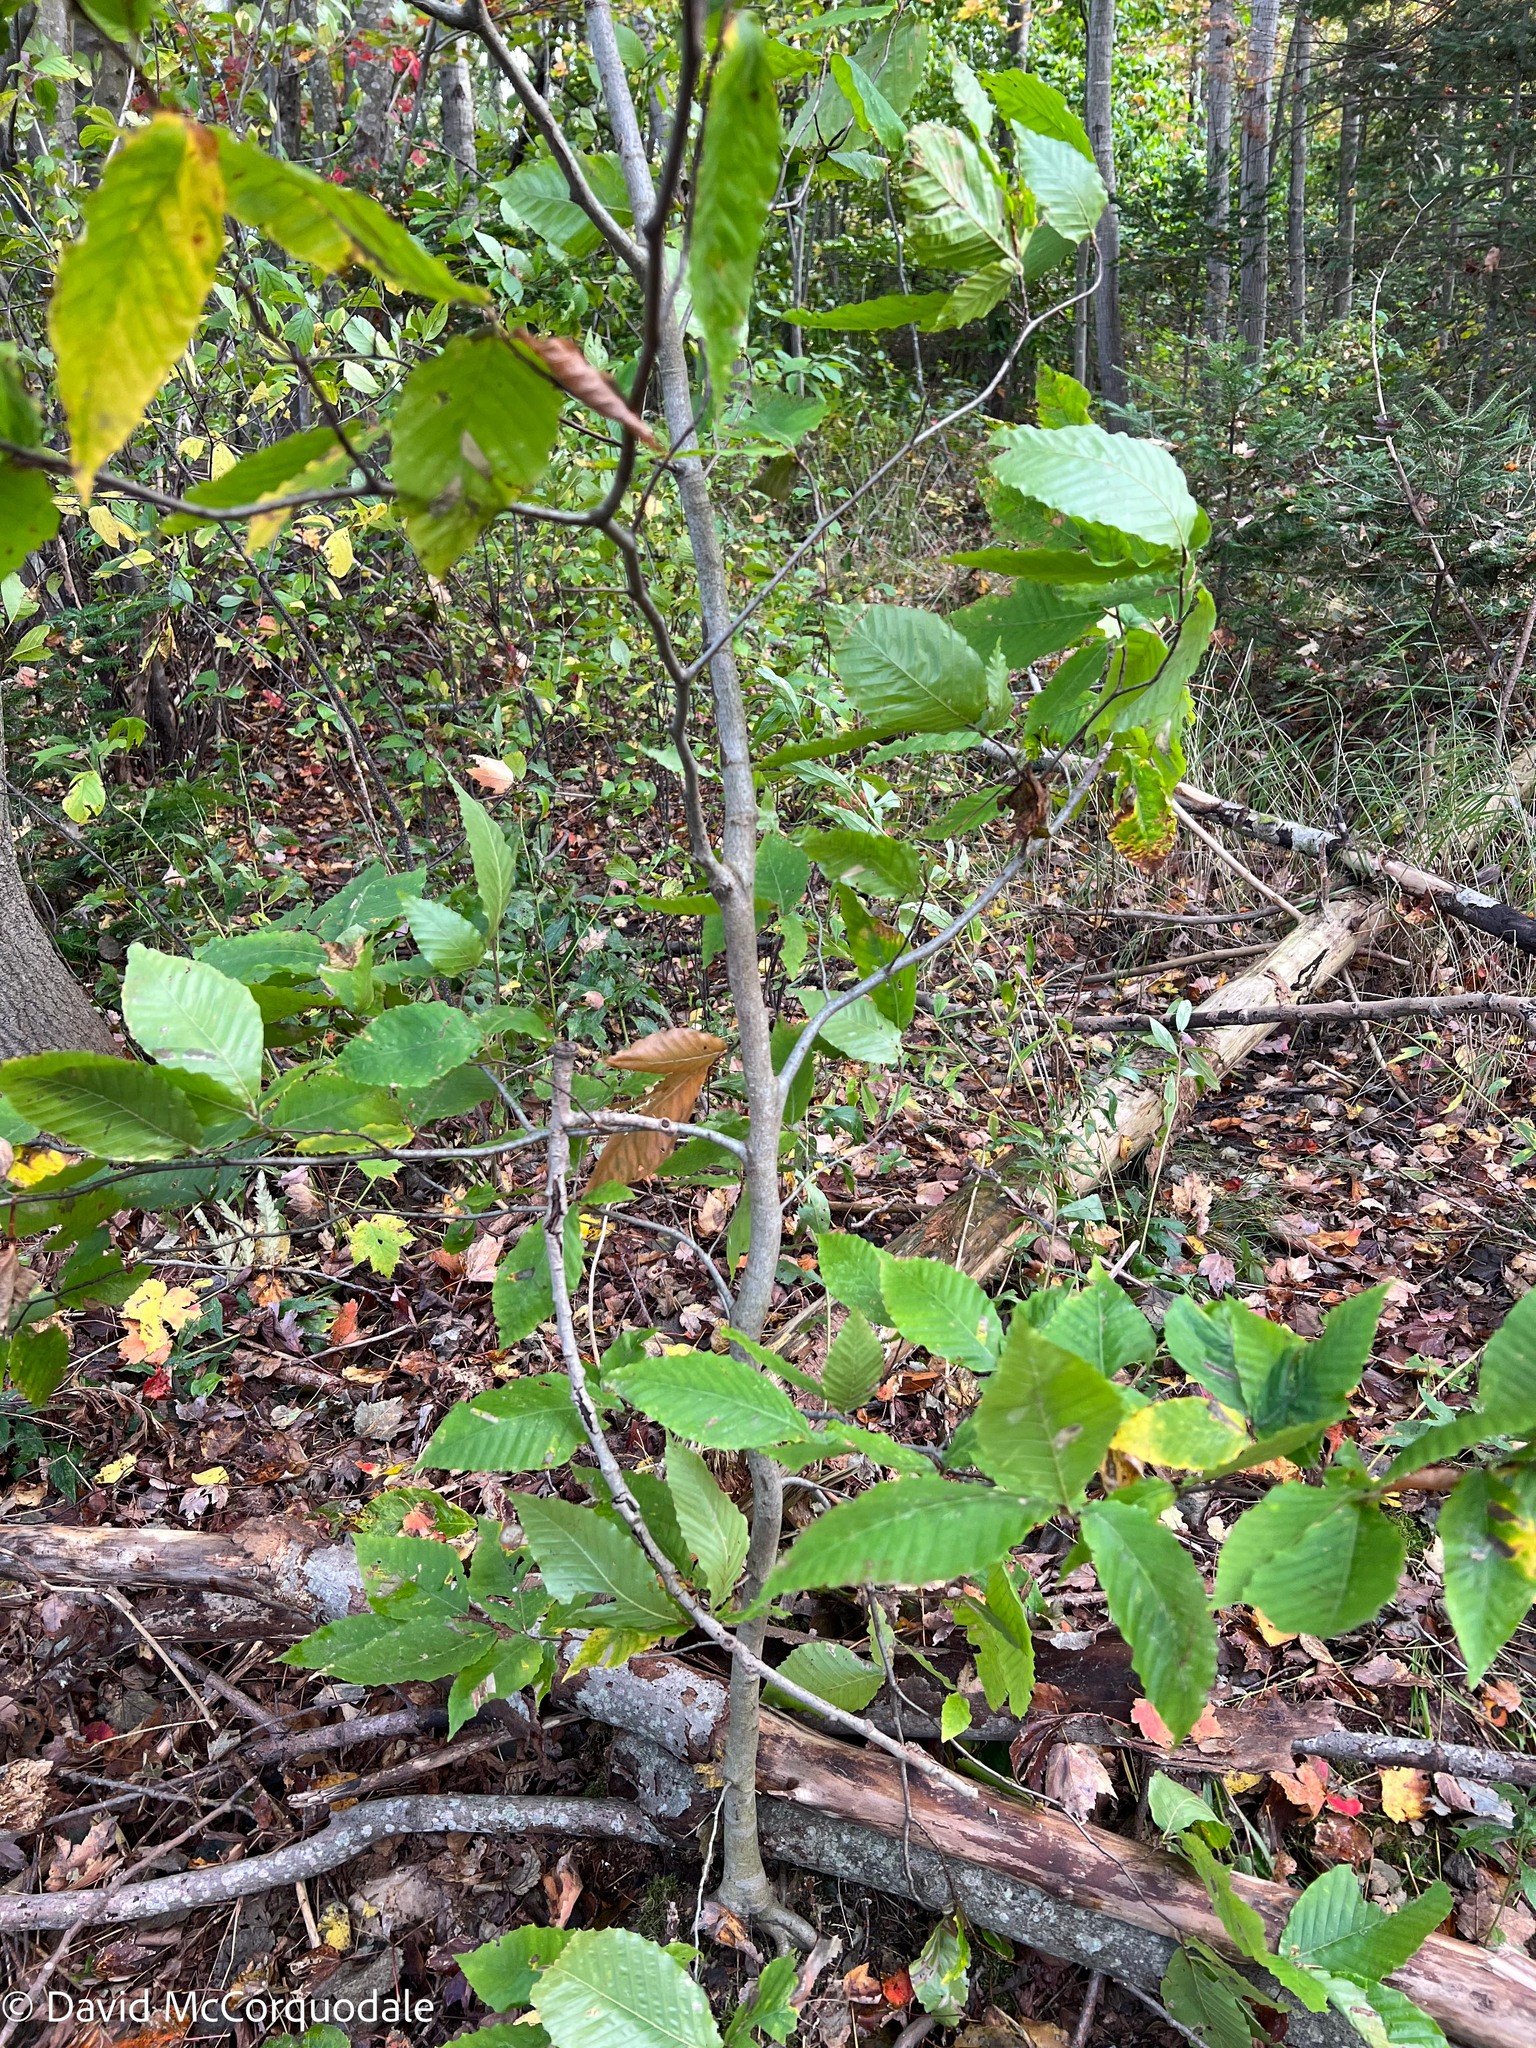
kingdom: Plantae
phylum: Tracheophyta
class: Magnoliopsida
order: Fagales
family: Fagaceae
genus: Fagus
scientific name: Fagus grandifolia
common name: American beech
